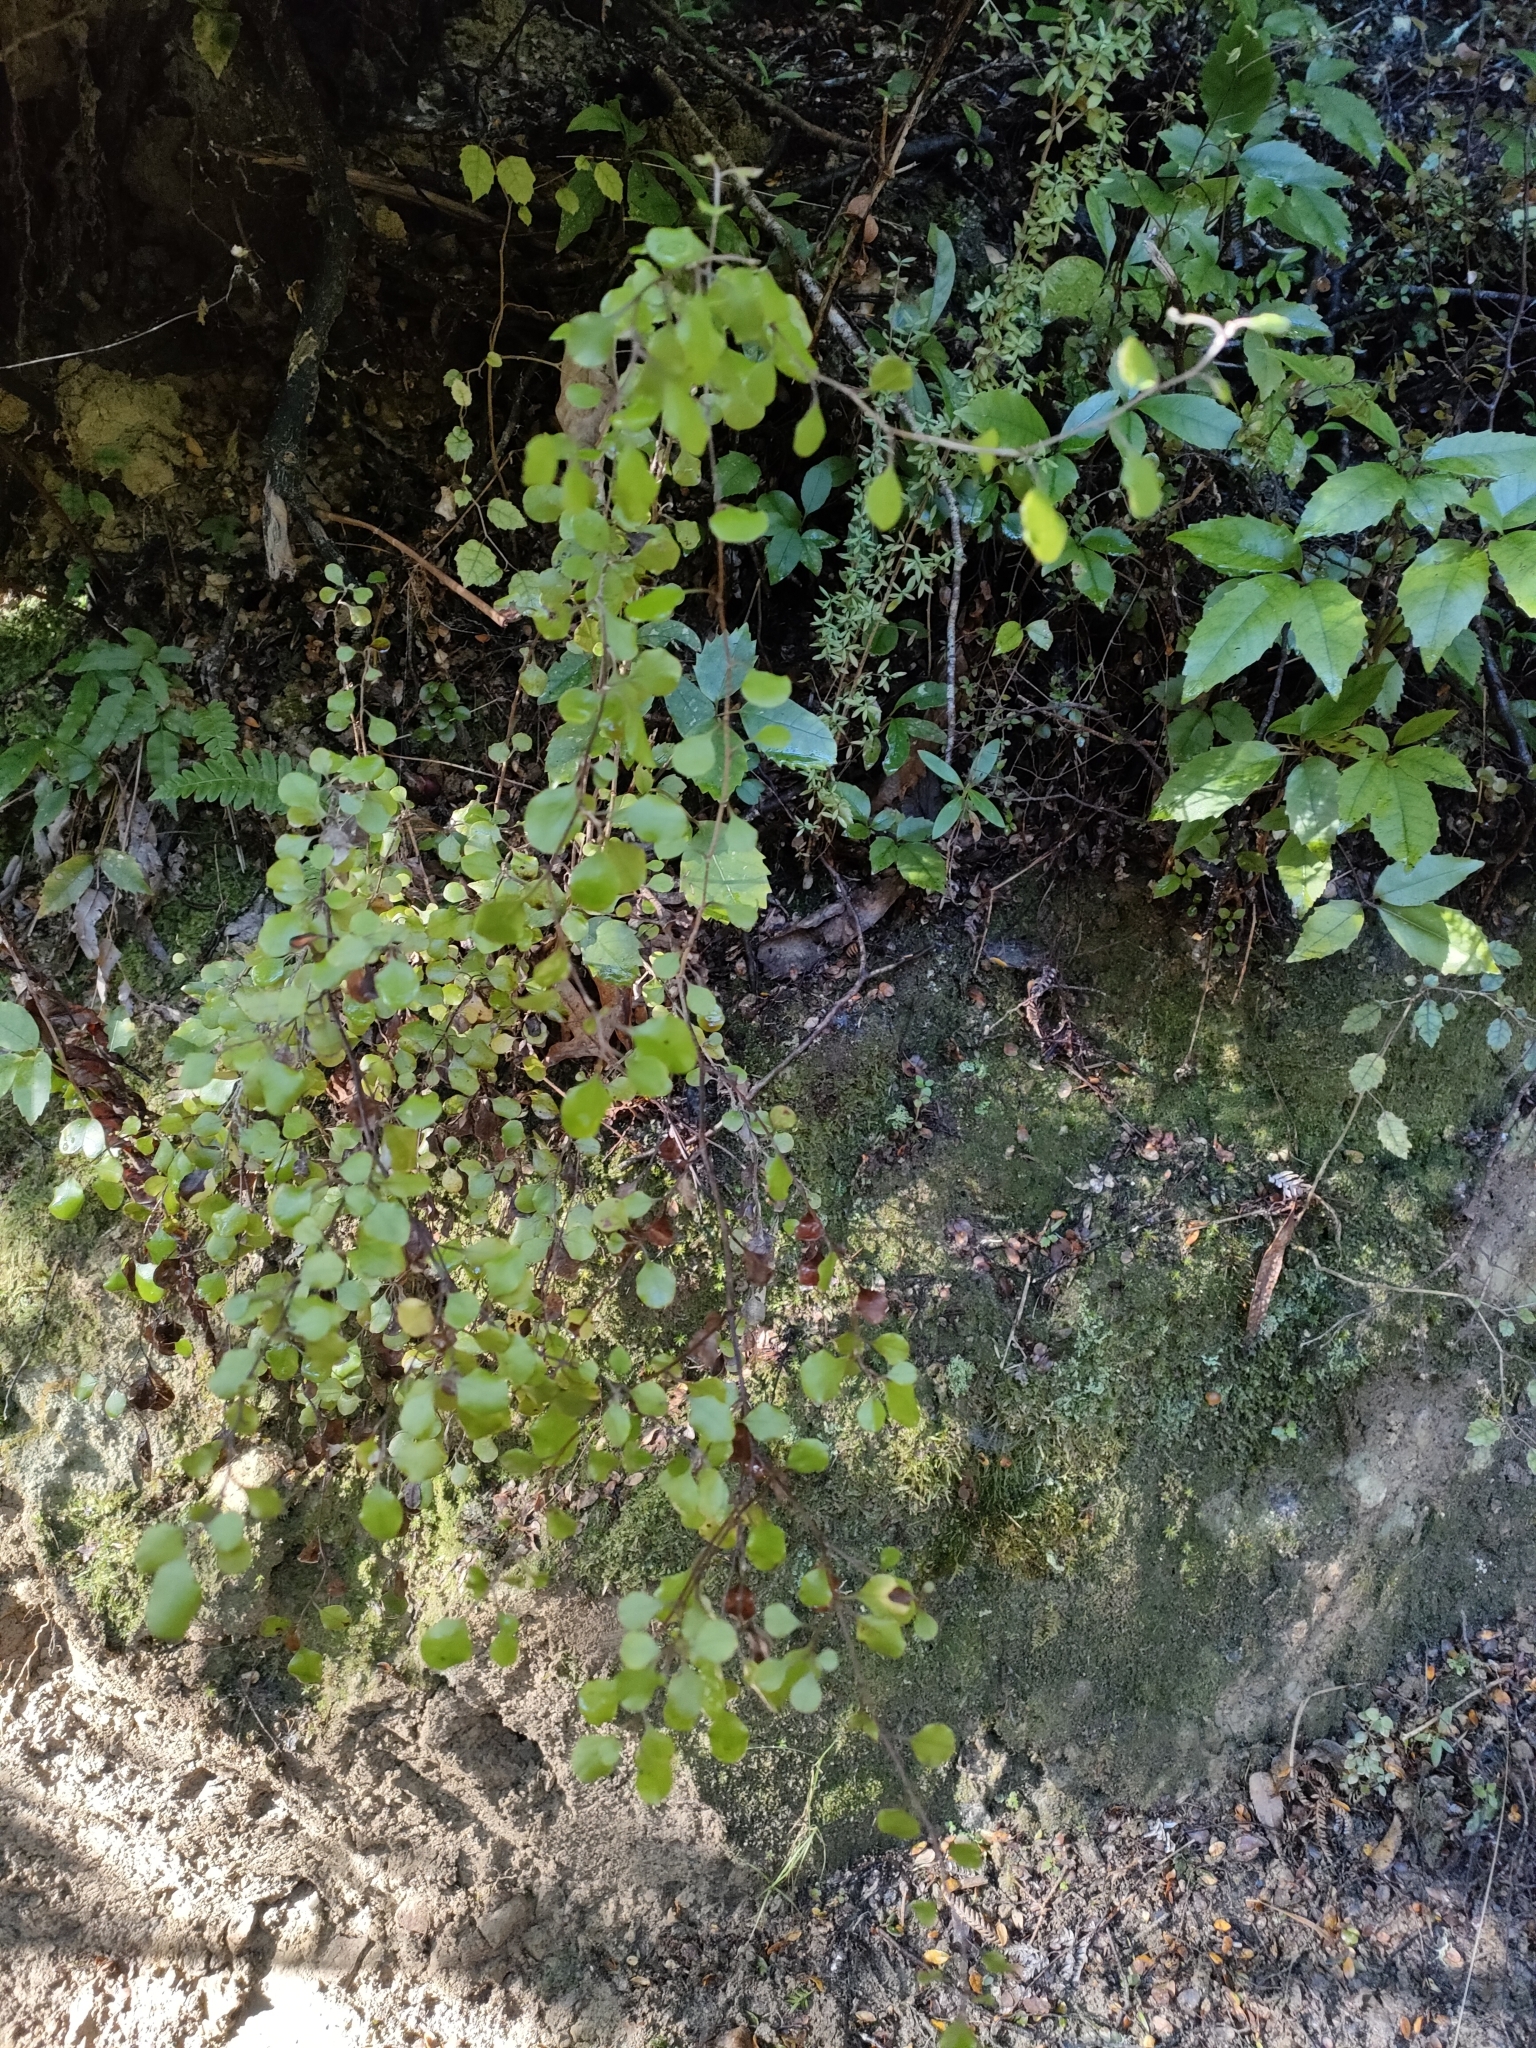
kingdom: Plantae
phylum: Tracheophyta
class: Magnoliopsida
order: Asterales
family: Asteraceae
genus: Ozothamnus
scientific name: Ozothamnus glomeratus
